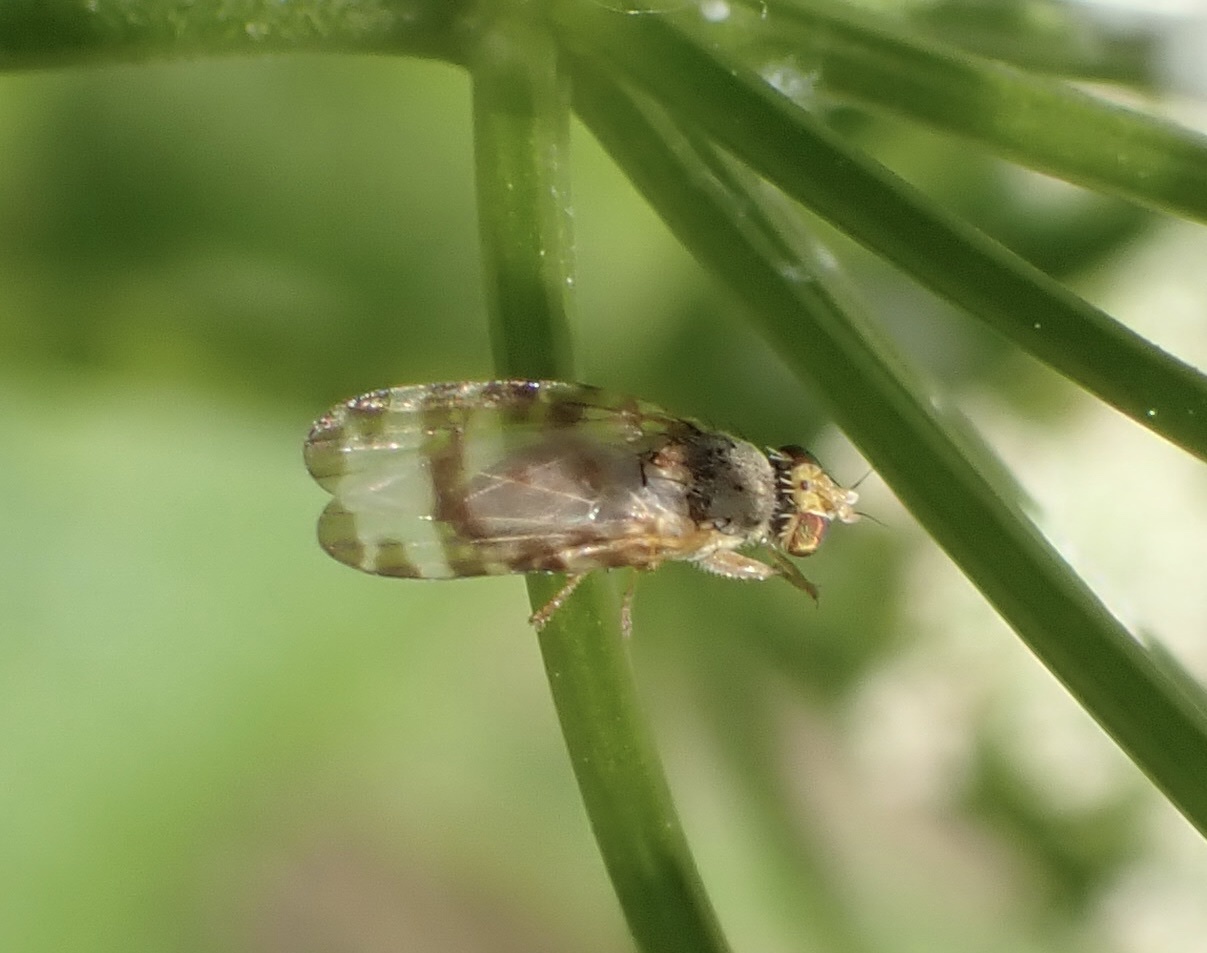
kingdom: Animalia
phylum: Arthropoda
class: Insecta
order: Diptera
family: Tephritidae
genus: Sphenella
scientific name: Sphenella marginata
